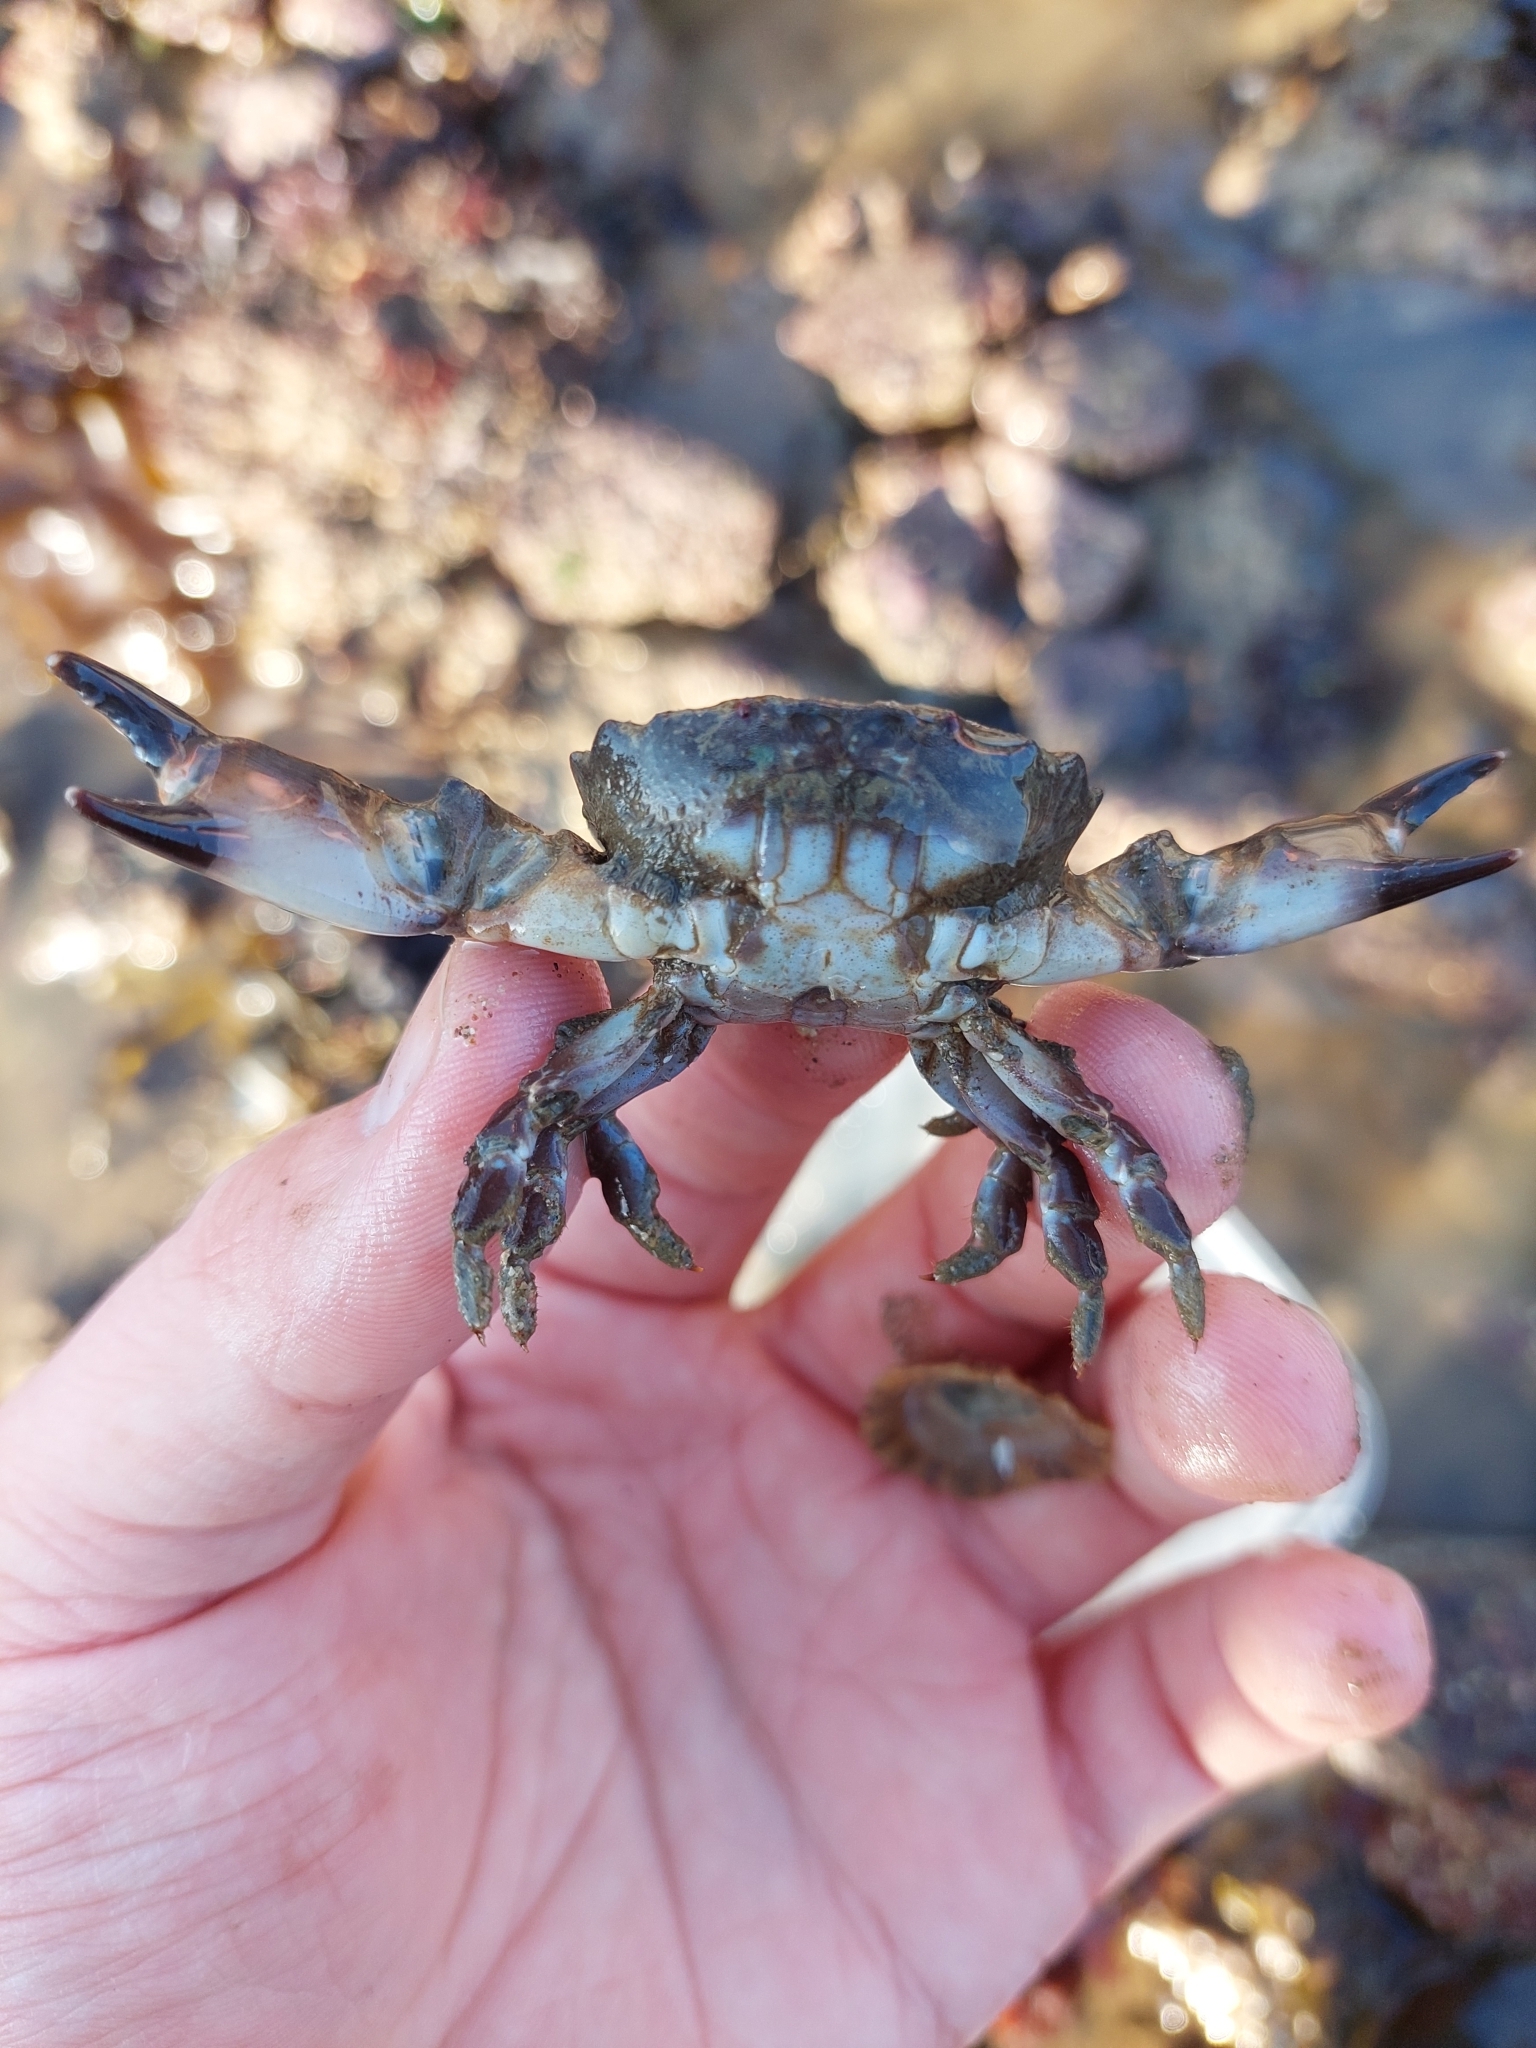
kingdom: Animalia
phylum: Arthropoda
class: Malacostraca
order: Decapoda
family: Xanthidae
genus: Xantho
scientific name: Xantho hydrophilus
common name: Montagu's crab
